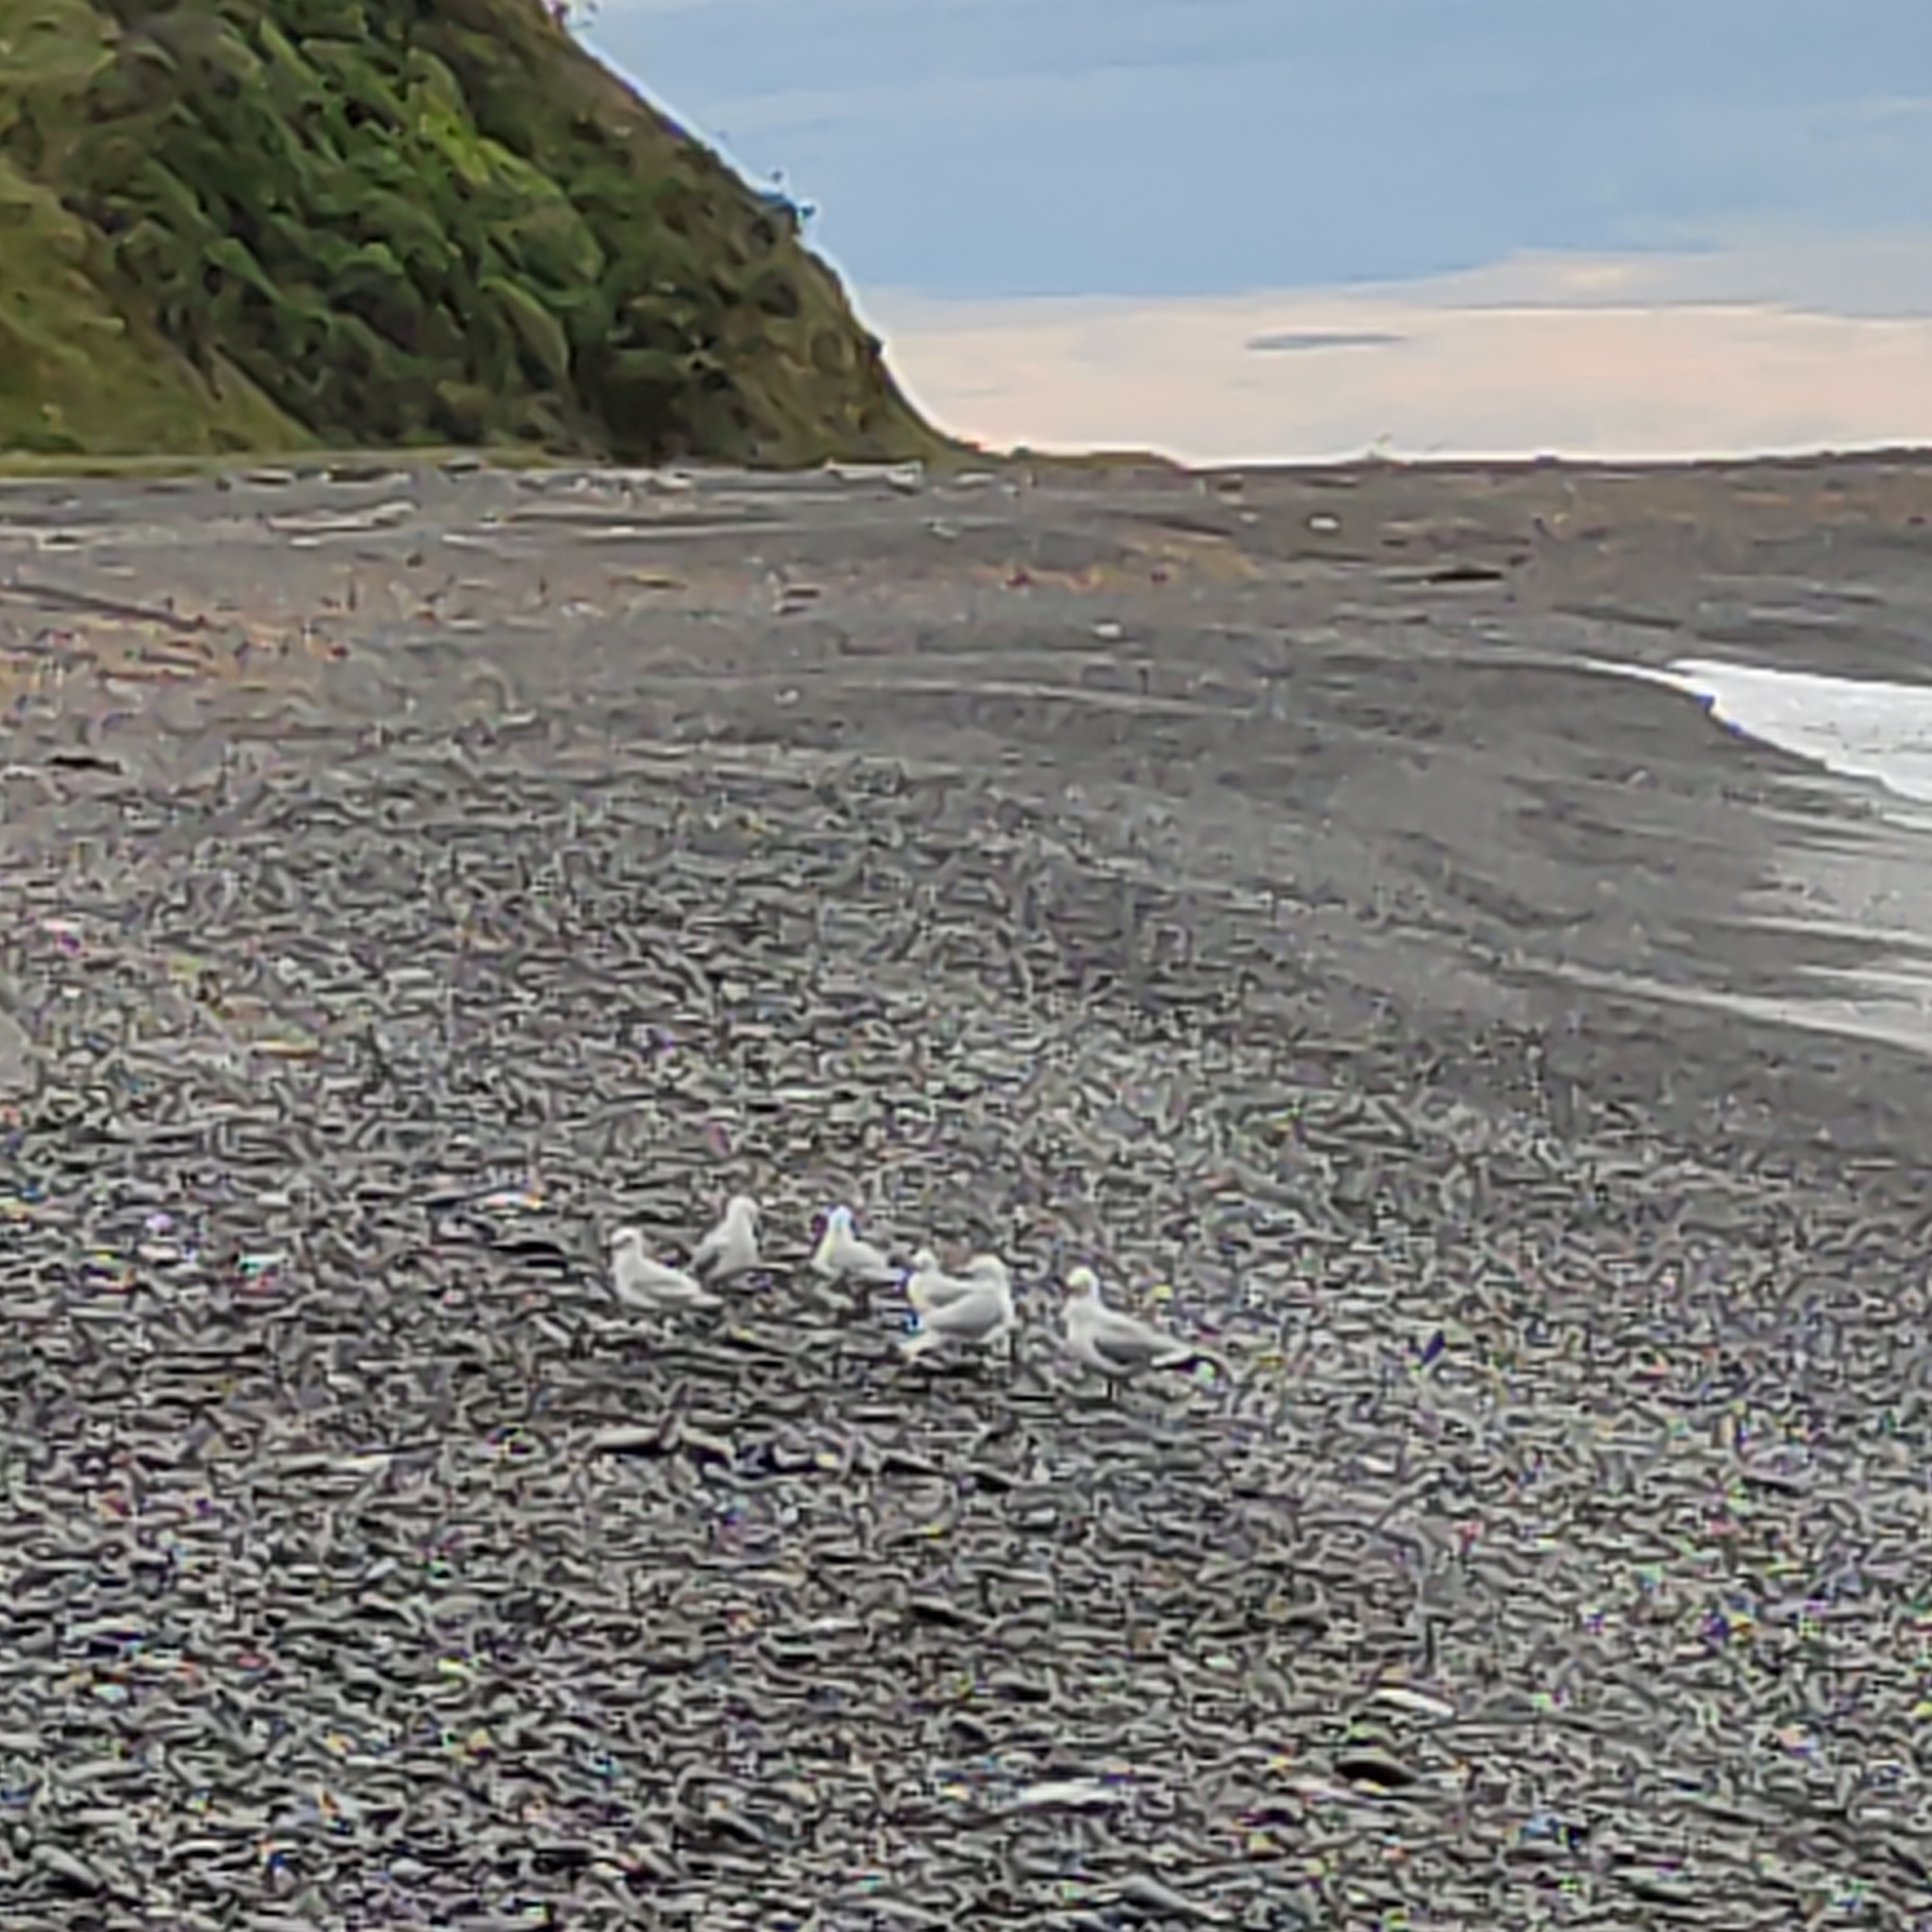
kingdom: Animalia
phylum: Chordata
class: Aves
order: Charadriiformes
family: Laridae
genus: Chroicocephalus
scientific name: Chroicocephalus novaehollandiae
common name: Silver gull
